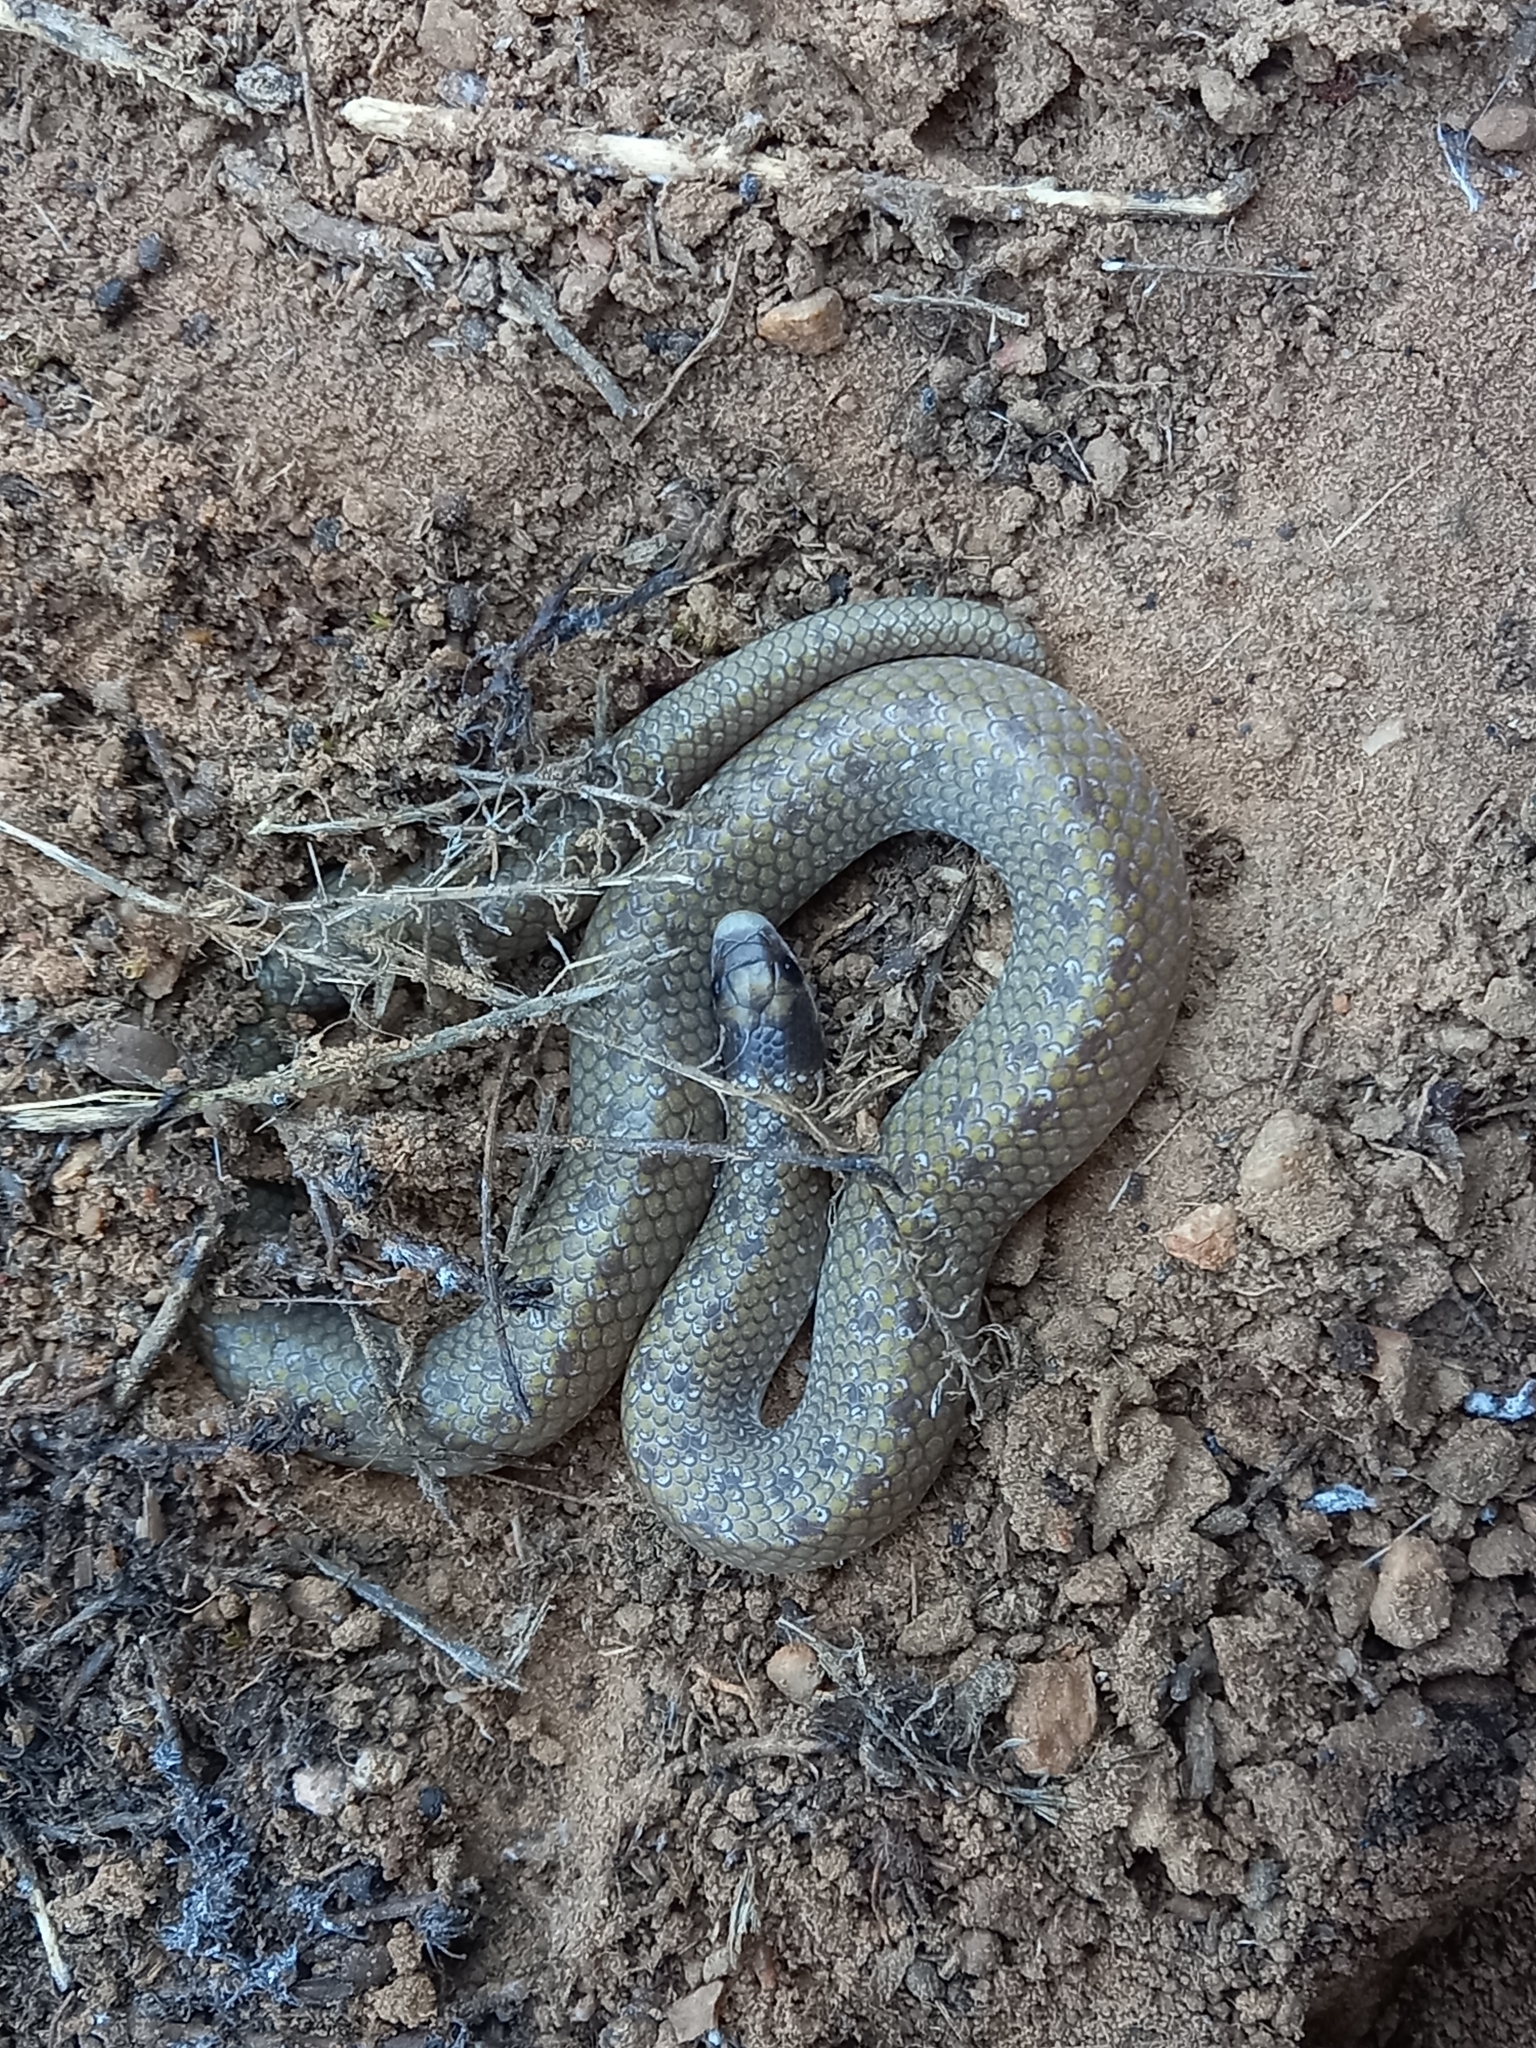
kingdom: Animalia
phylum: Chordata
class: Squamata
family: Prosymnidae
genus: Prosymna
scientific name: Prosymna sundevalli
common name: Sundevall's shovel-snout
